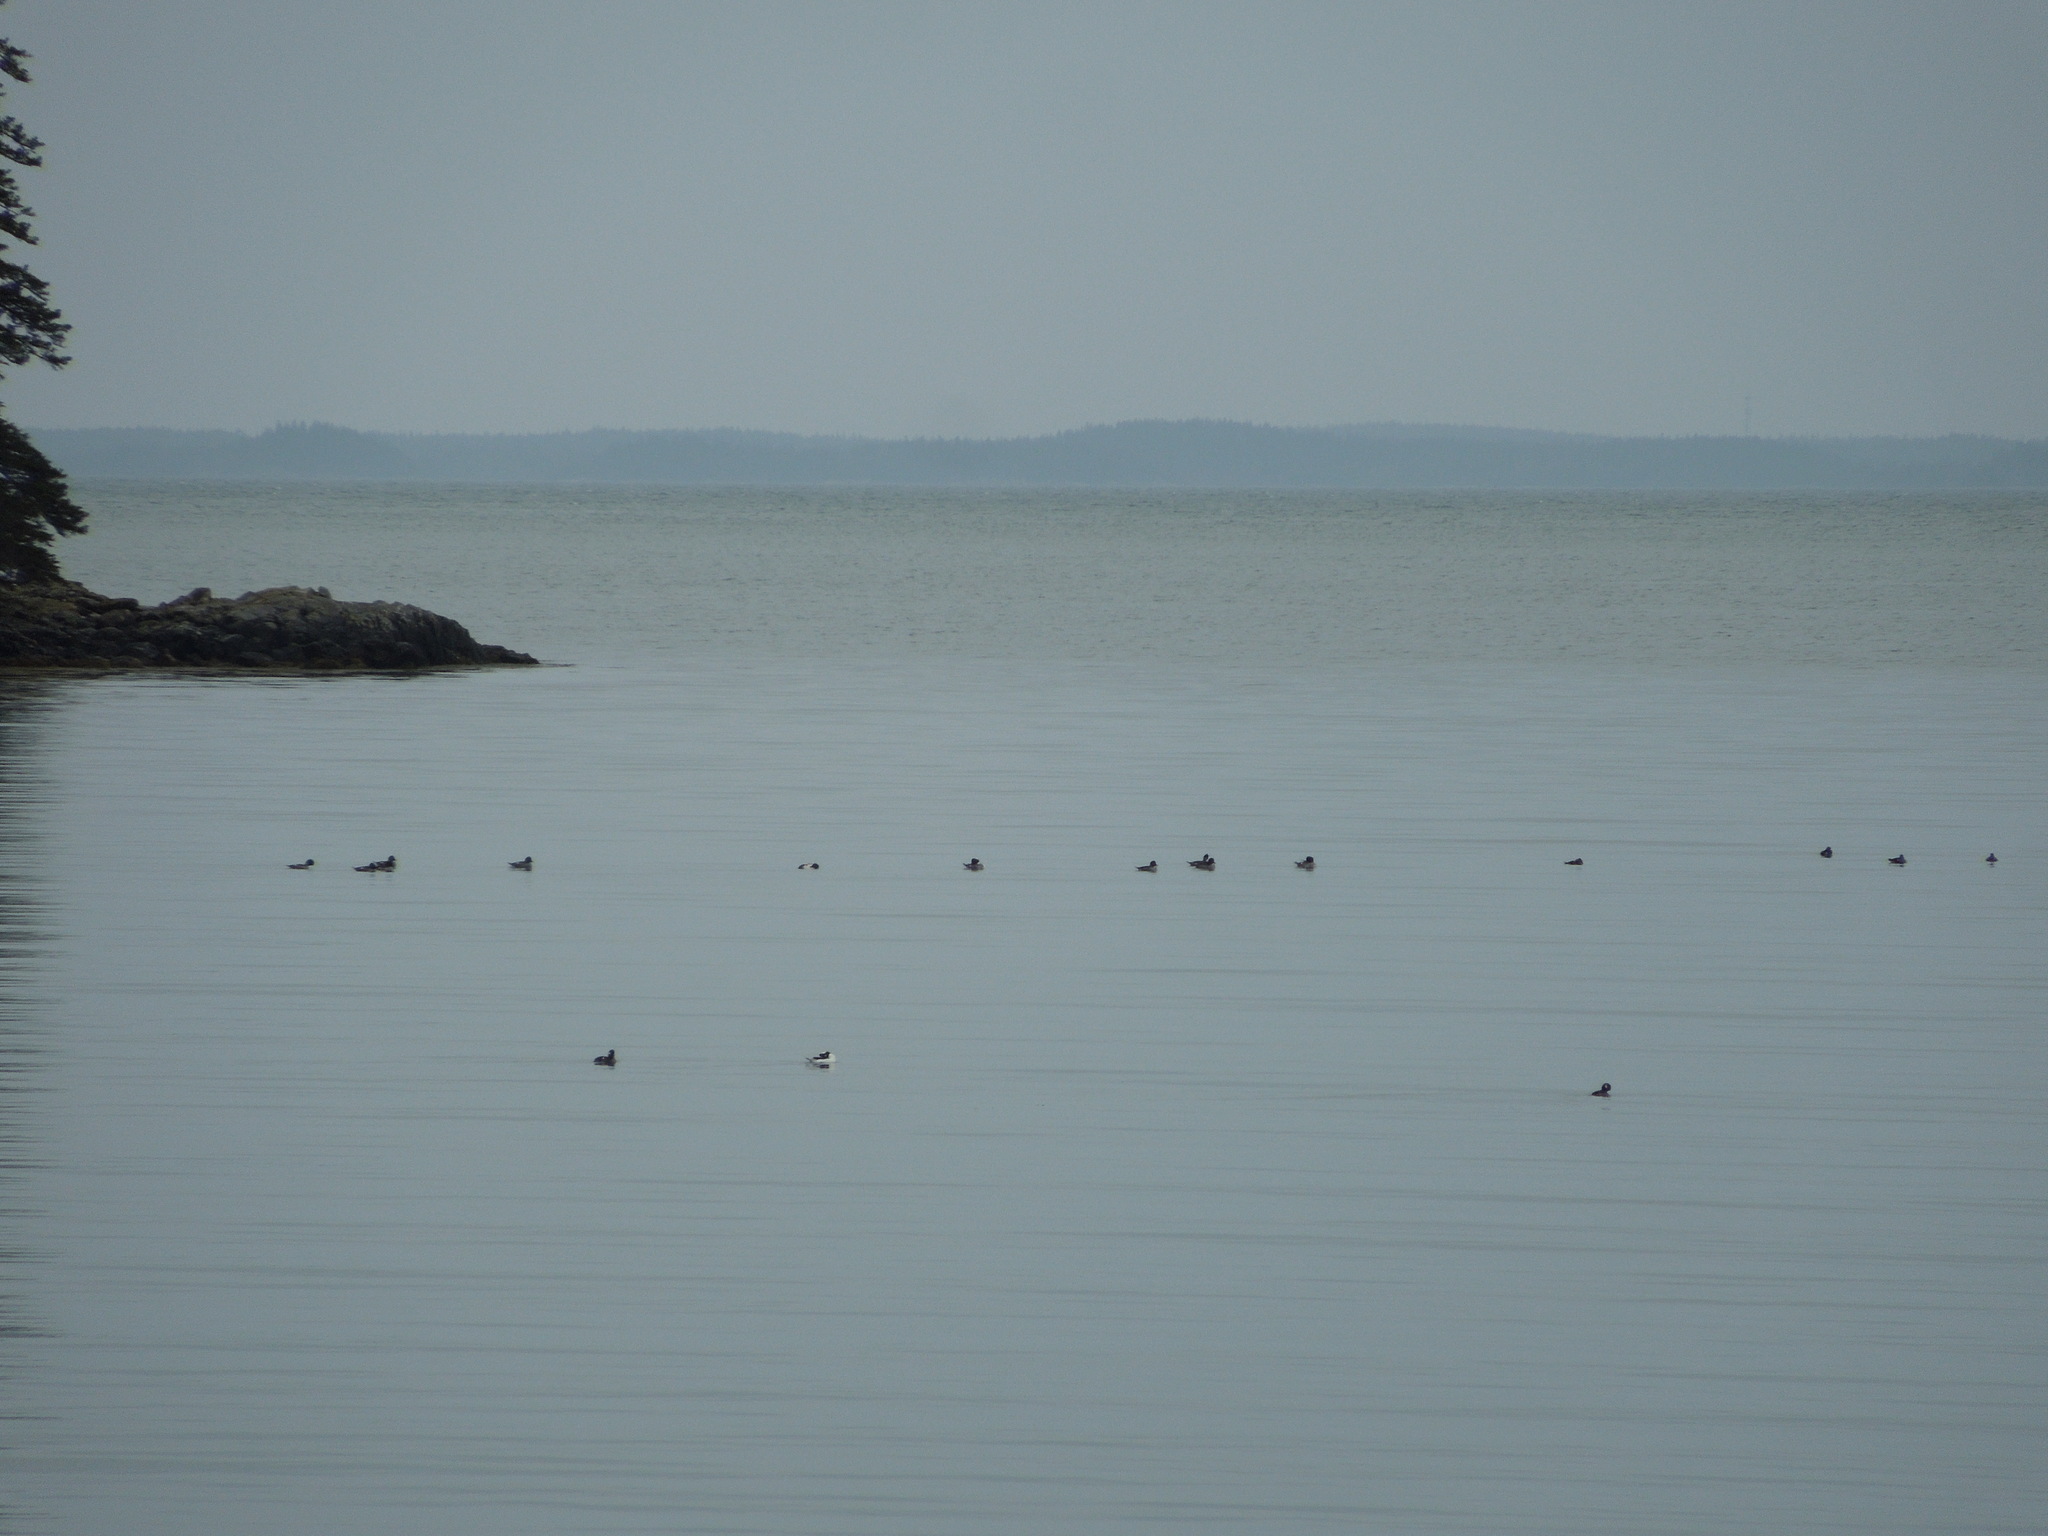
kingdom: Animalia
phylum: Chordata
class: Aves
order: Anseriformes
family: Anatidae
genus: Bucephala
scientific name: Bucephala
